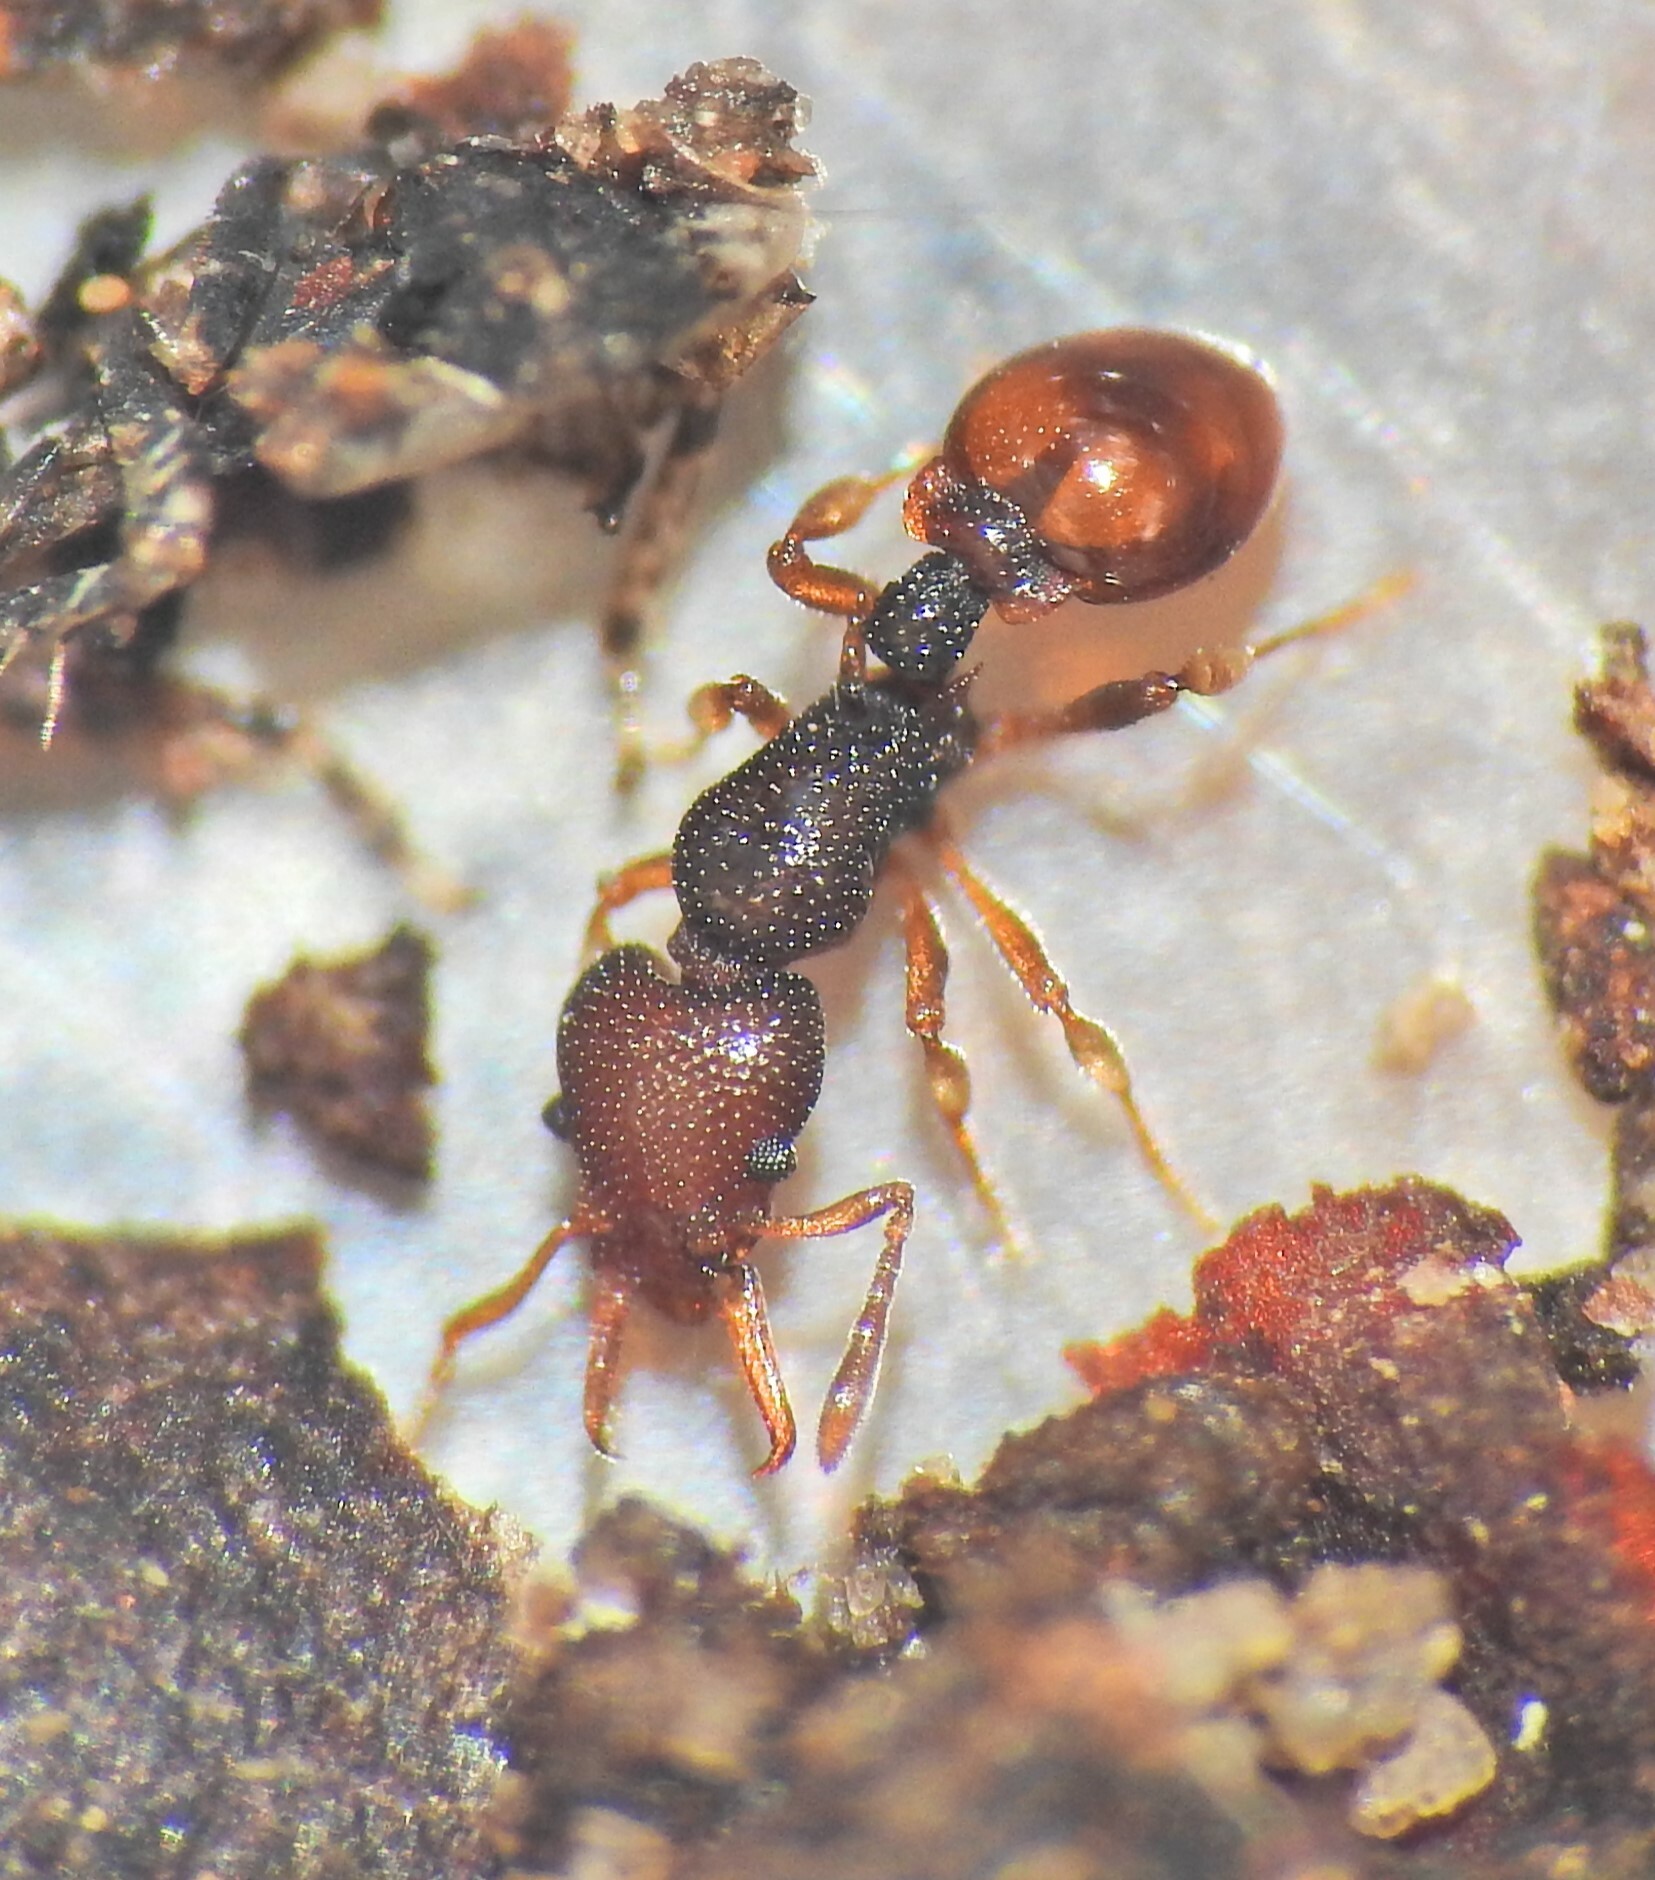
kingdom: Animalia
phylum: Arthropoda
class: Insecta
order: Hymenoptera
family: Formicidae
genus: Epopostruma
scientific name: Epopostruma
